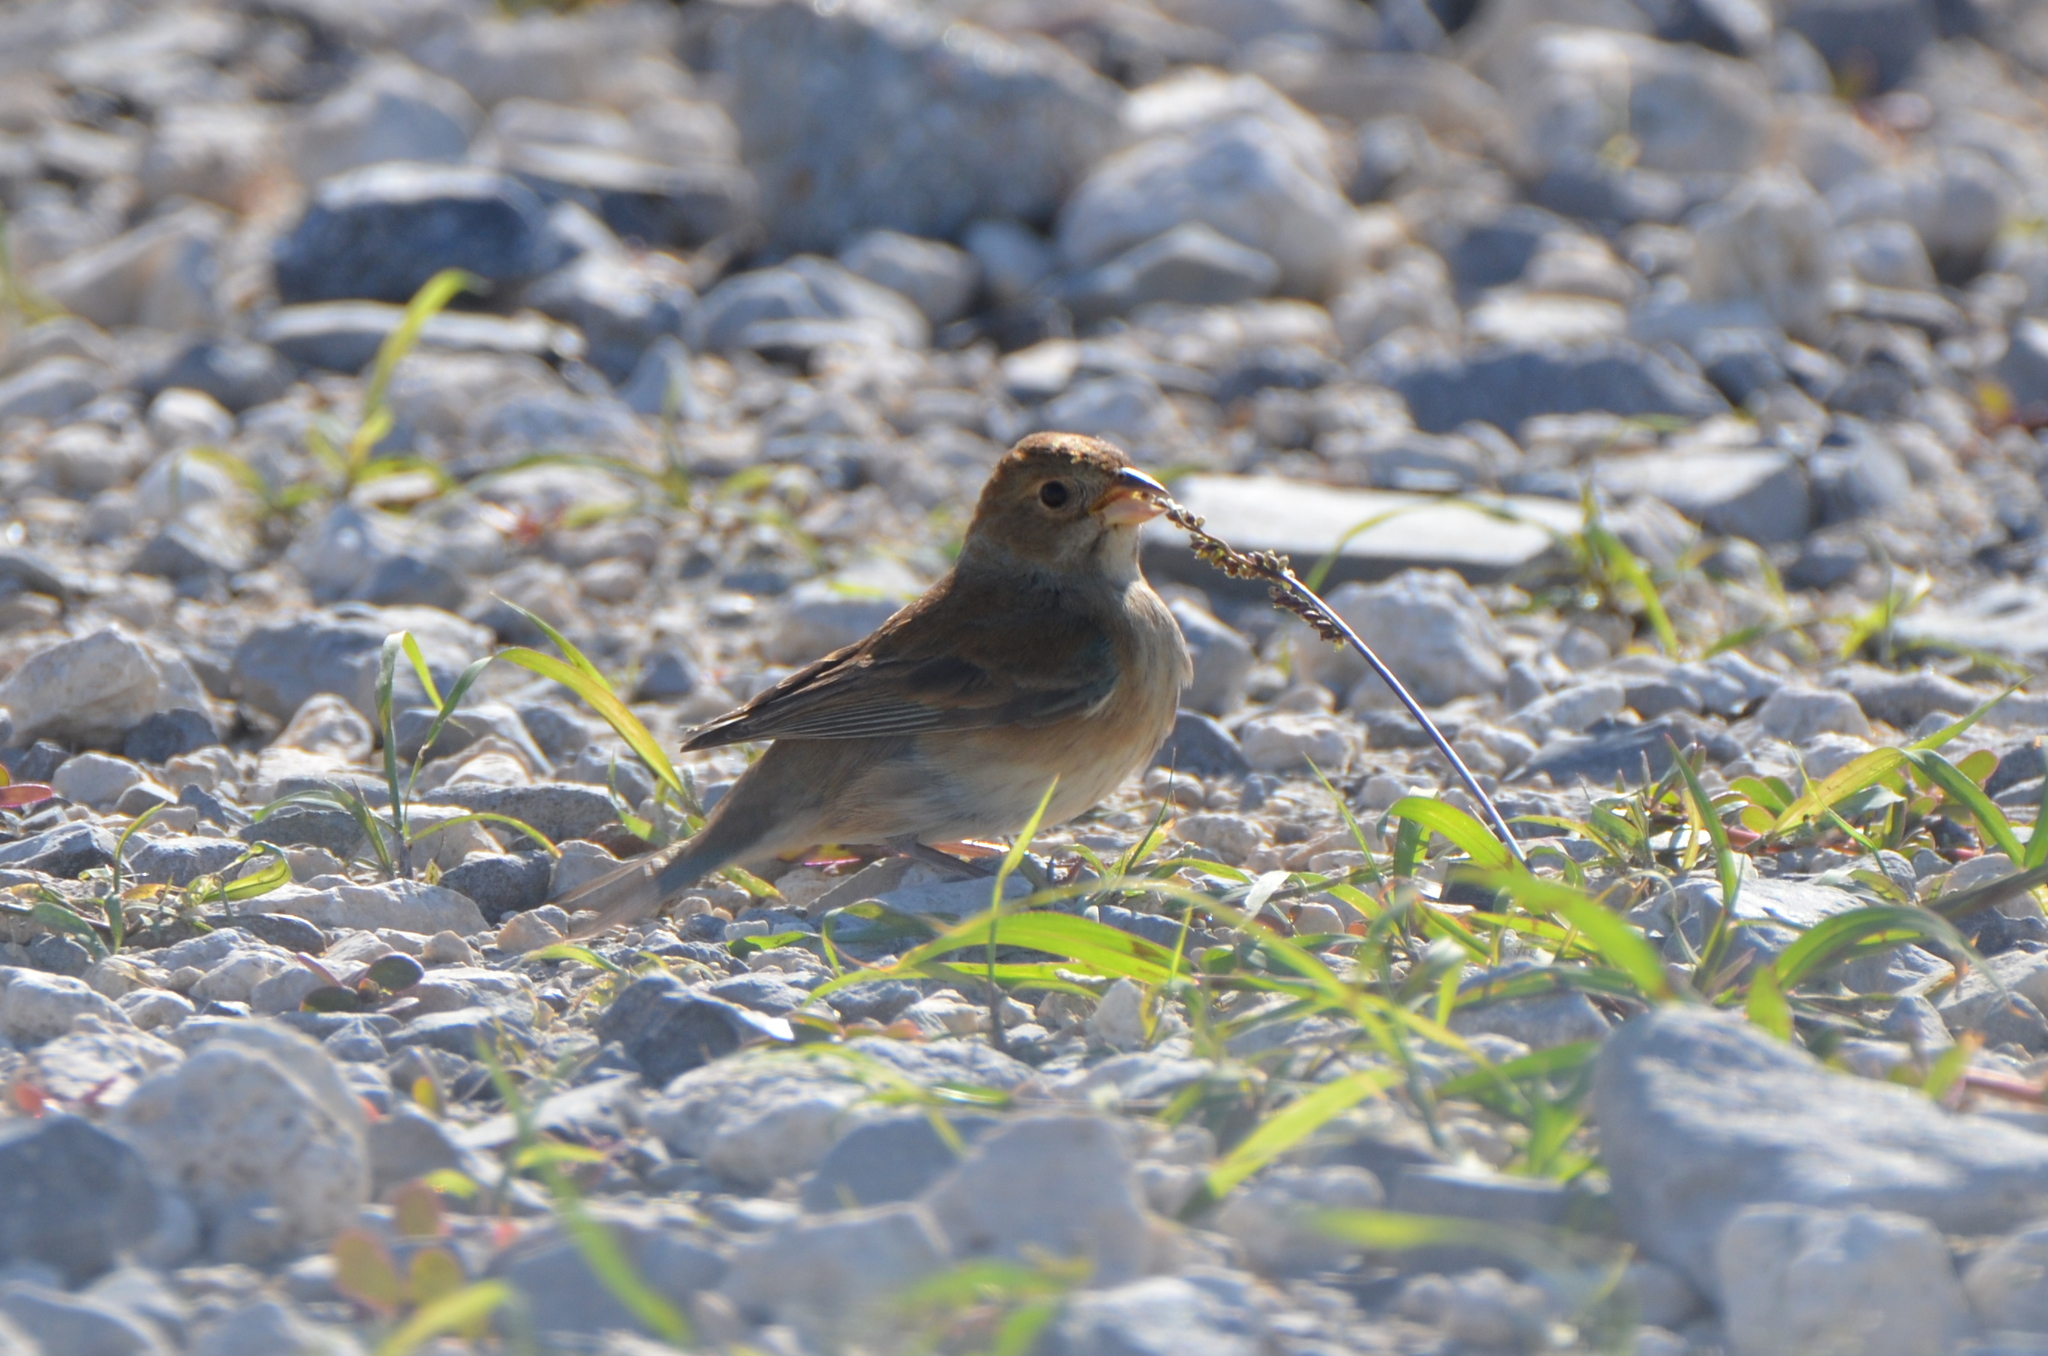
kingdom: Animalia
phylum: Chordata
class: Aves
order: Passeriformes
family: Cardinalidae
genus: Passerina
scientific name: Passerina cyanea
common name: Indigo bunting
